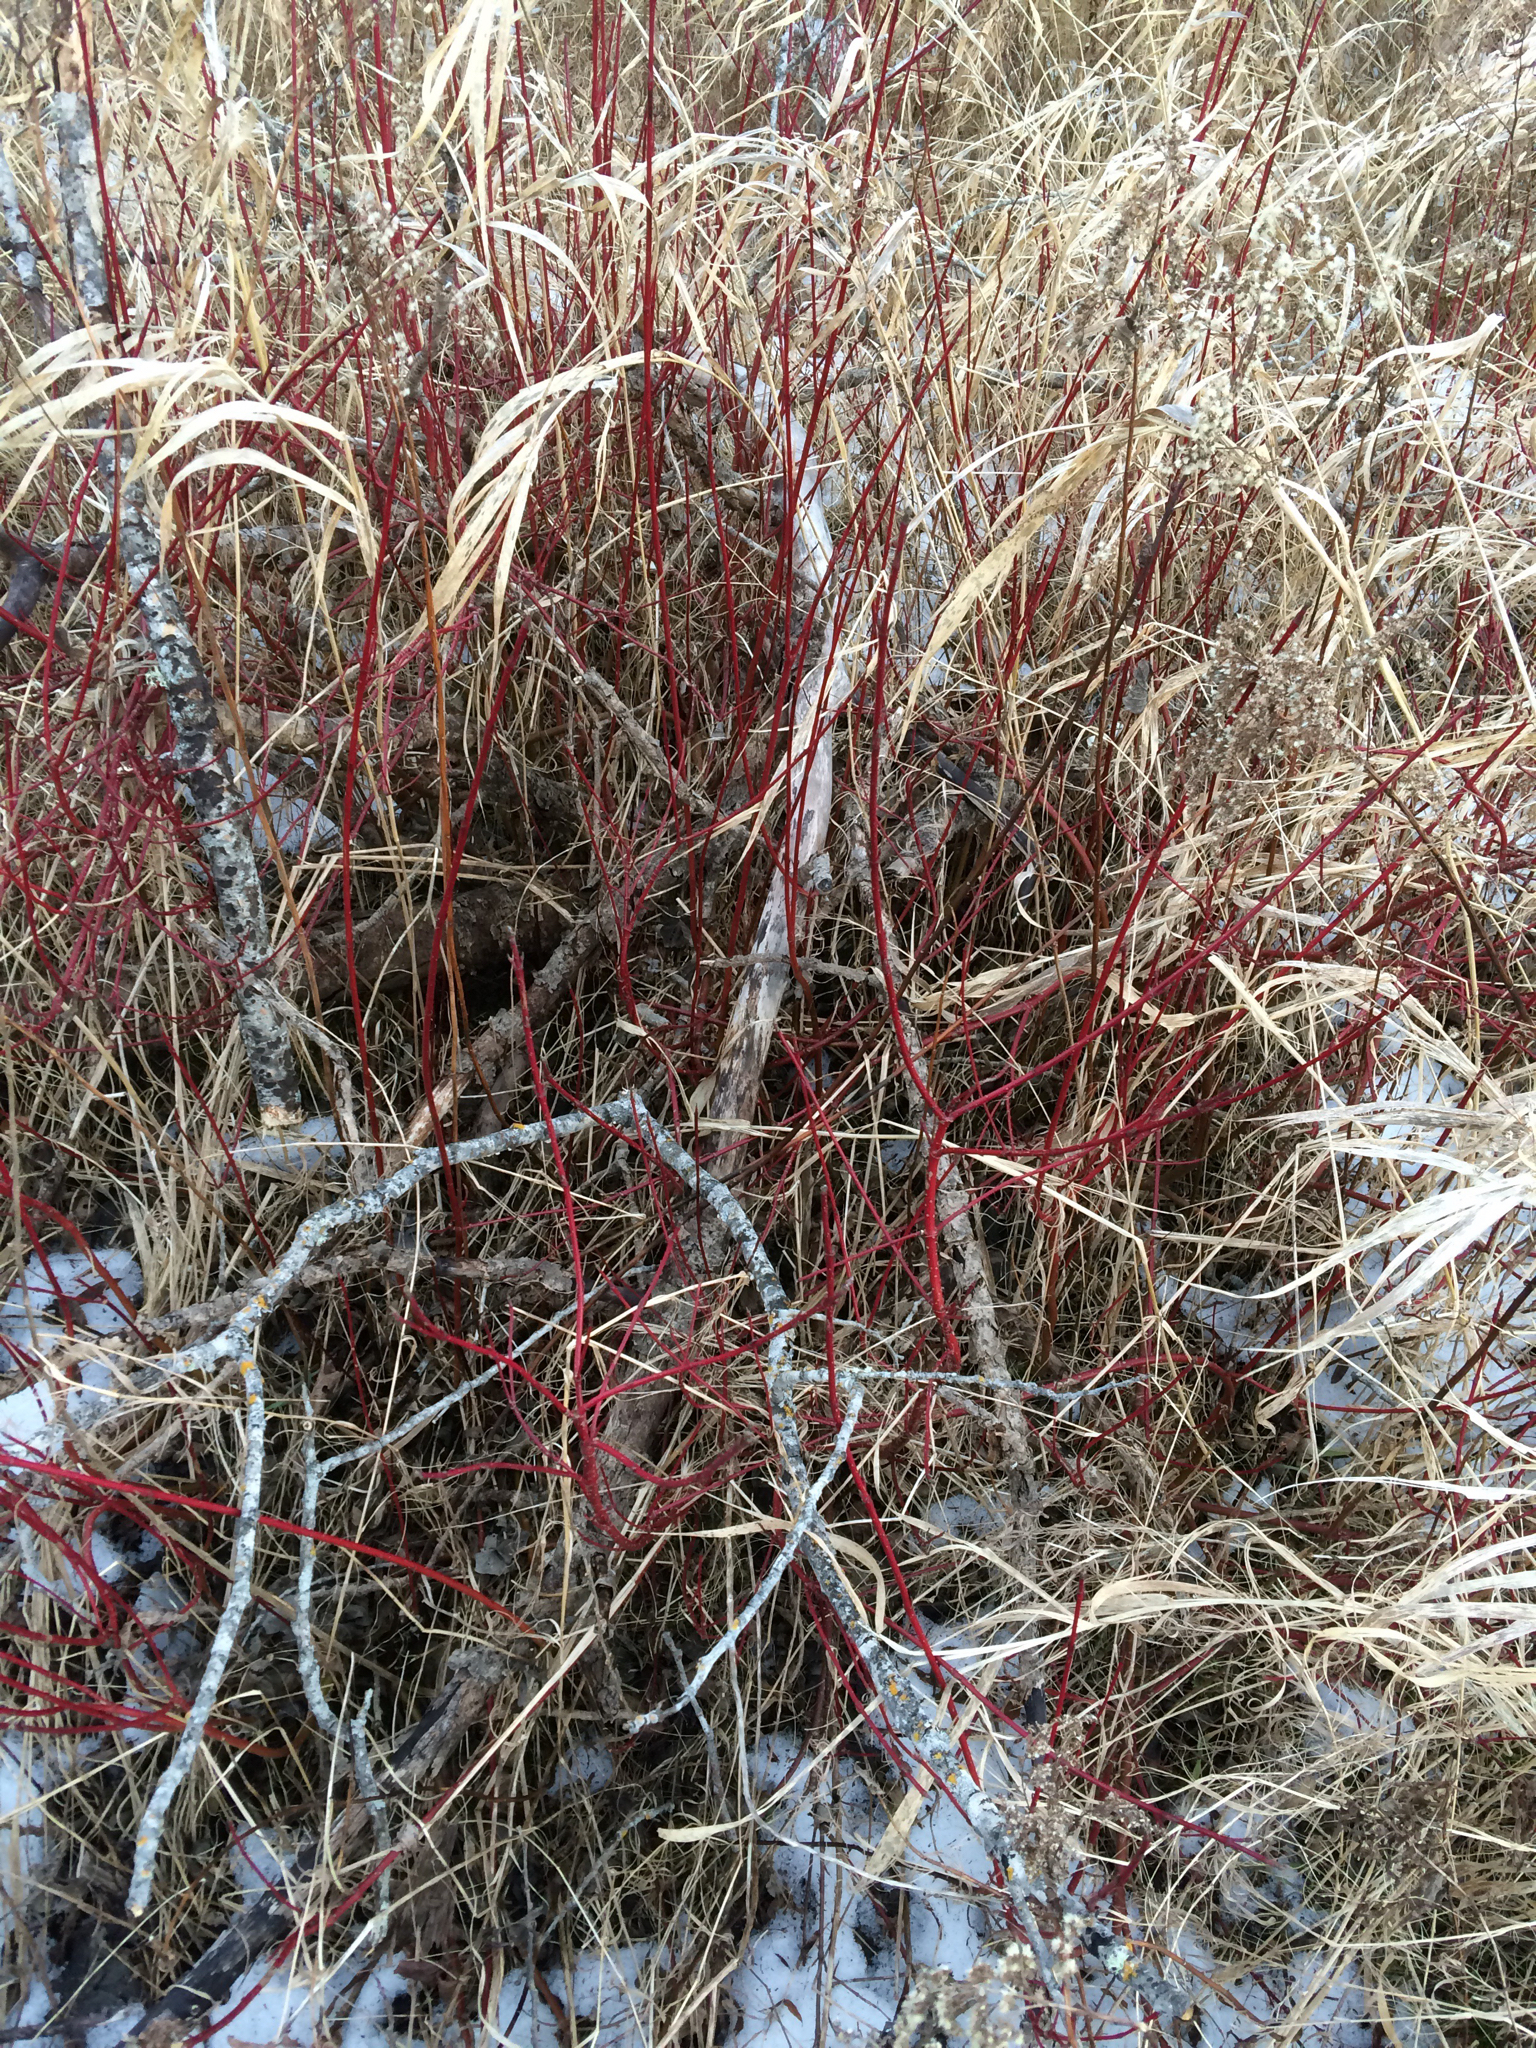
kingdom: Plantae
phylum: Tracheophyta
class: Magnoliopsida
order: Cornales
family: Cornaceae
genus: Cornus
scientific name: Cornus sericea
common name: Red-osier dogwood
